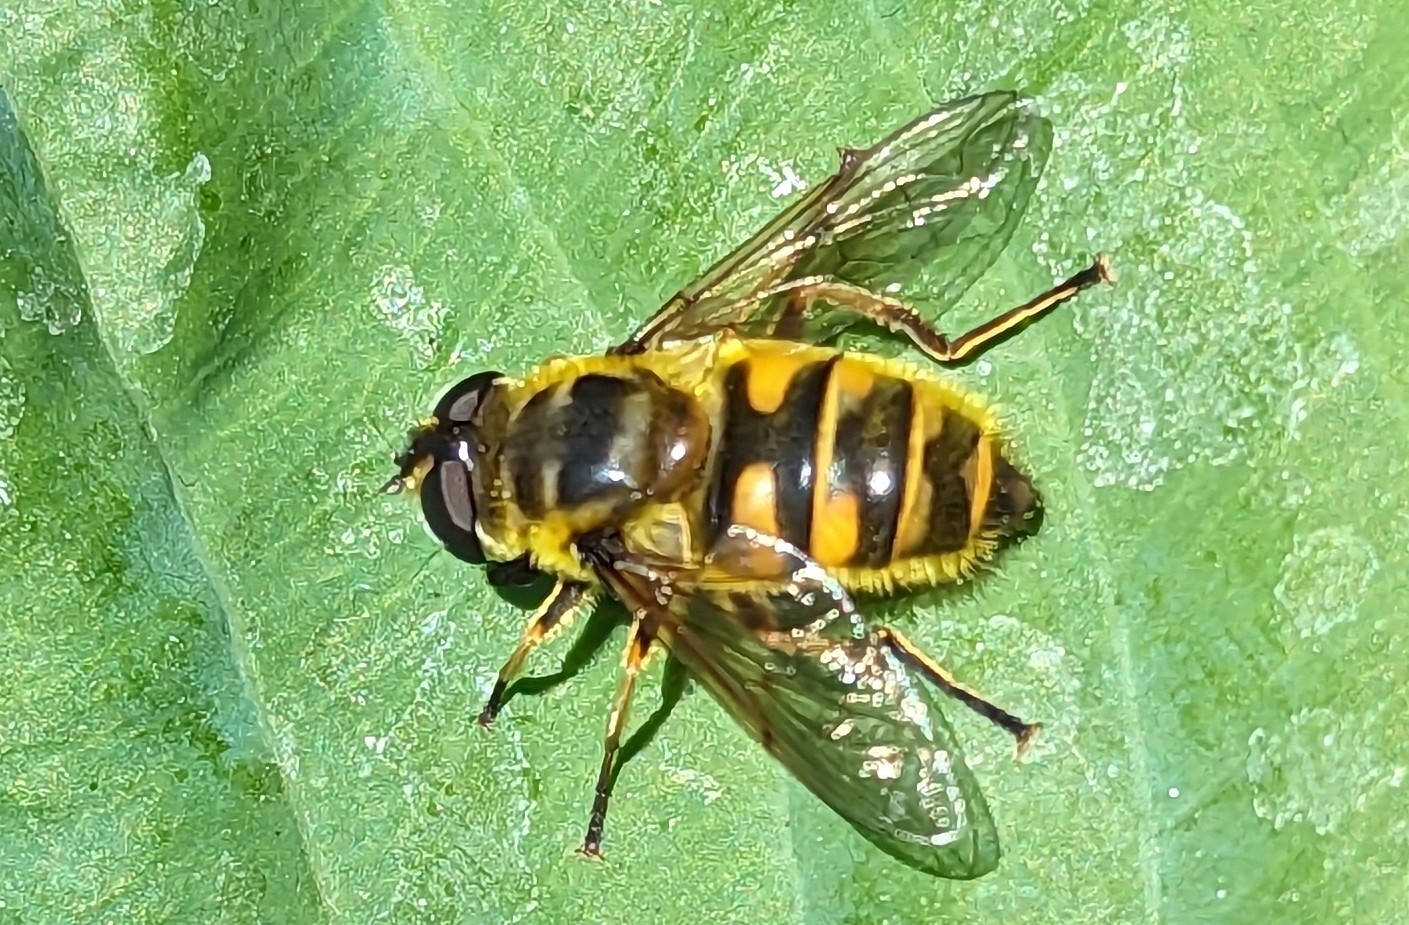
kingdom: Animalia
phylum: Arthropoda
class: Insecta
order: Diptera
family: Syrphidae
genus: Myathropa
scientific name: Myathropa florea
